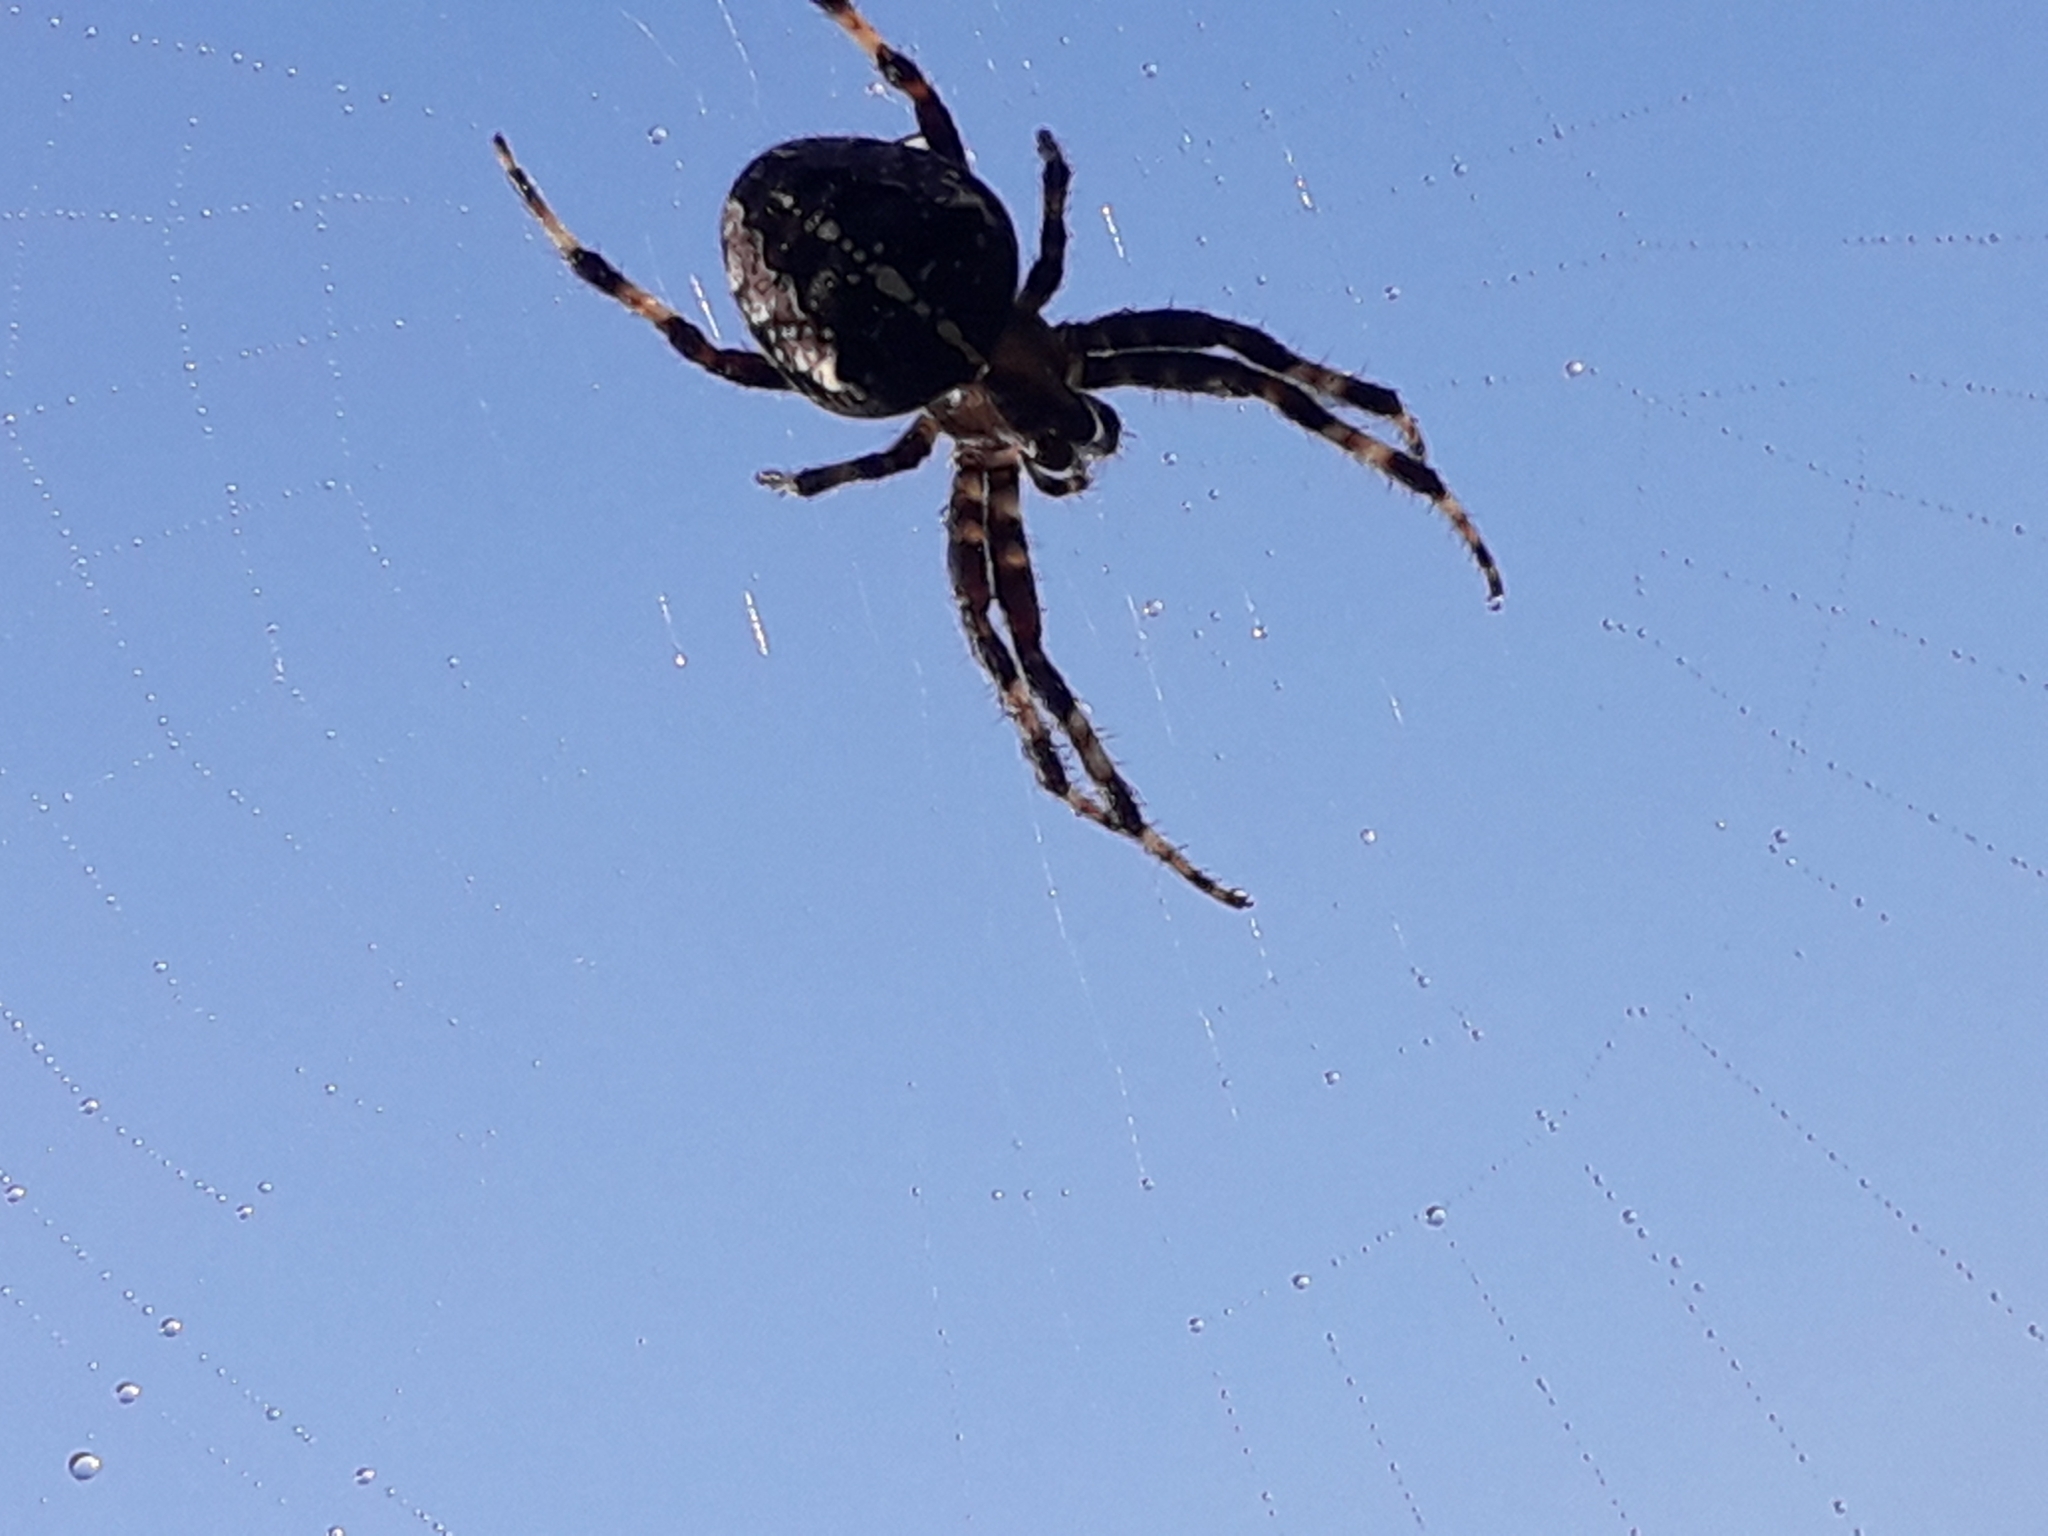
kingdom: Animalia
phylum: Arthropoda
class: Arachnida
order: Araneae
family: Araneidae
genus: Araneus
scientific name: Araneus diadematus
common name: Cross orbweaver
